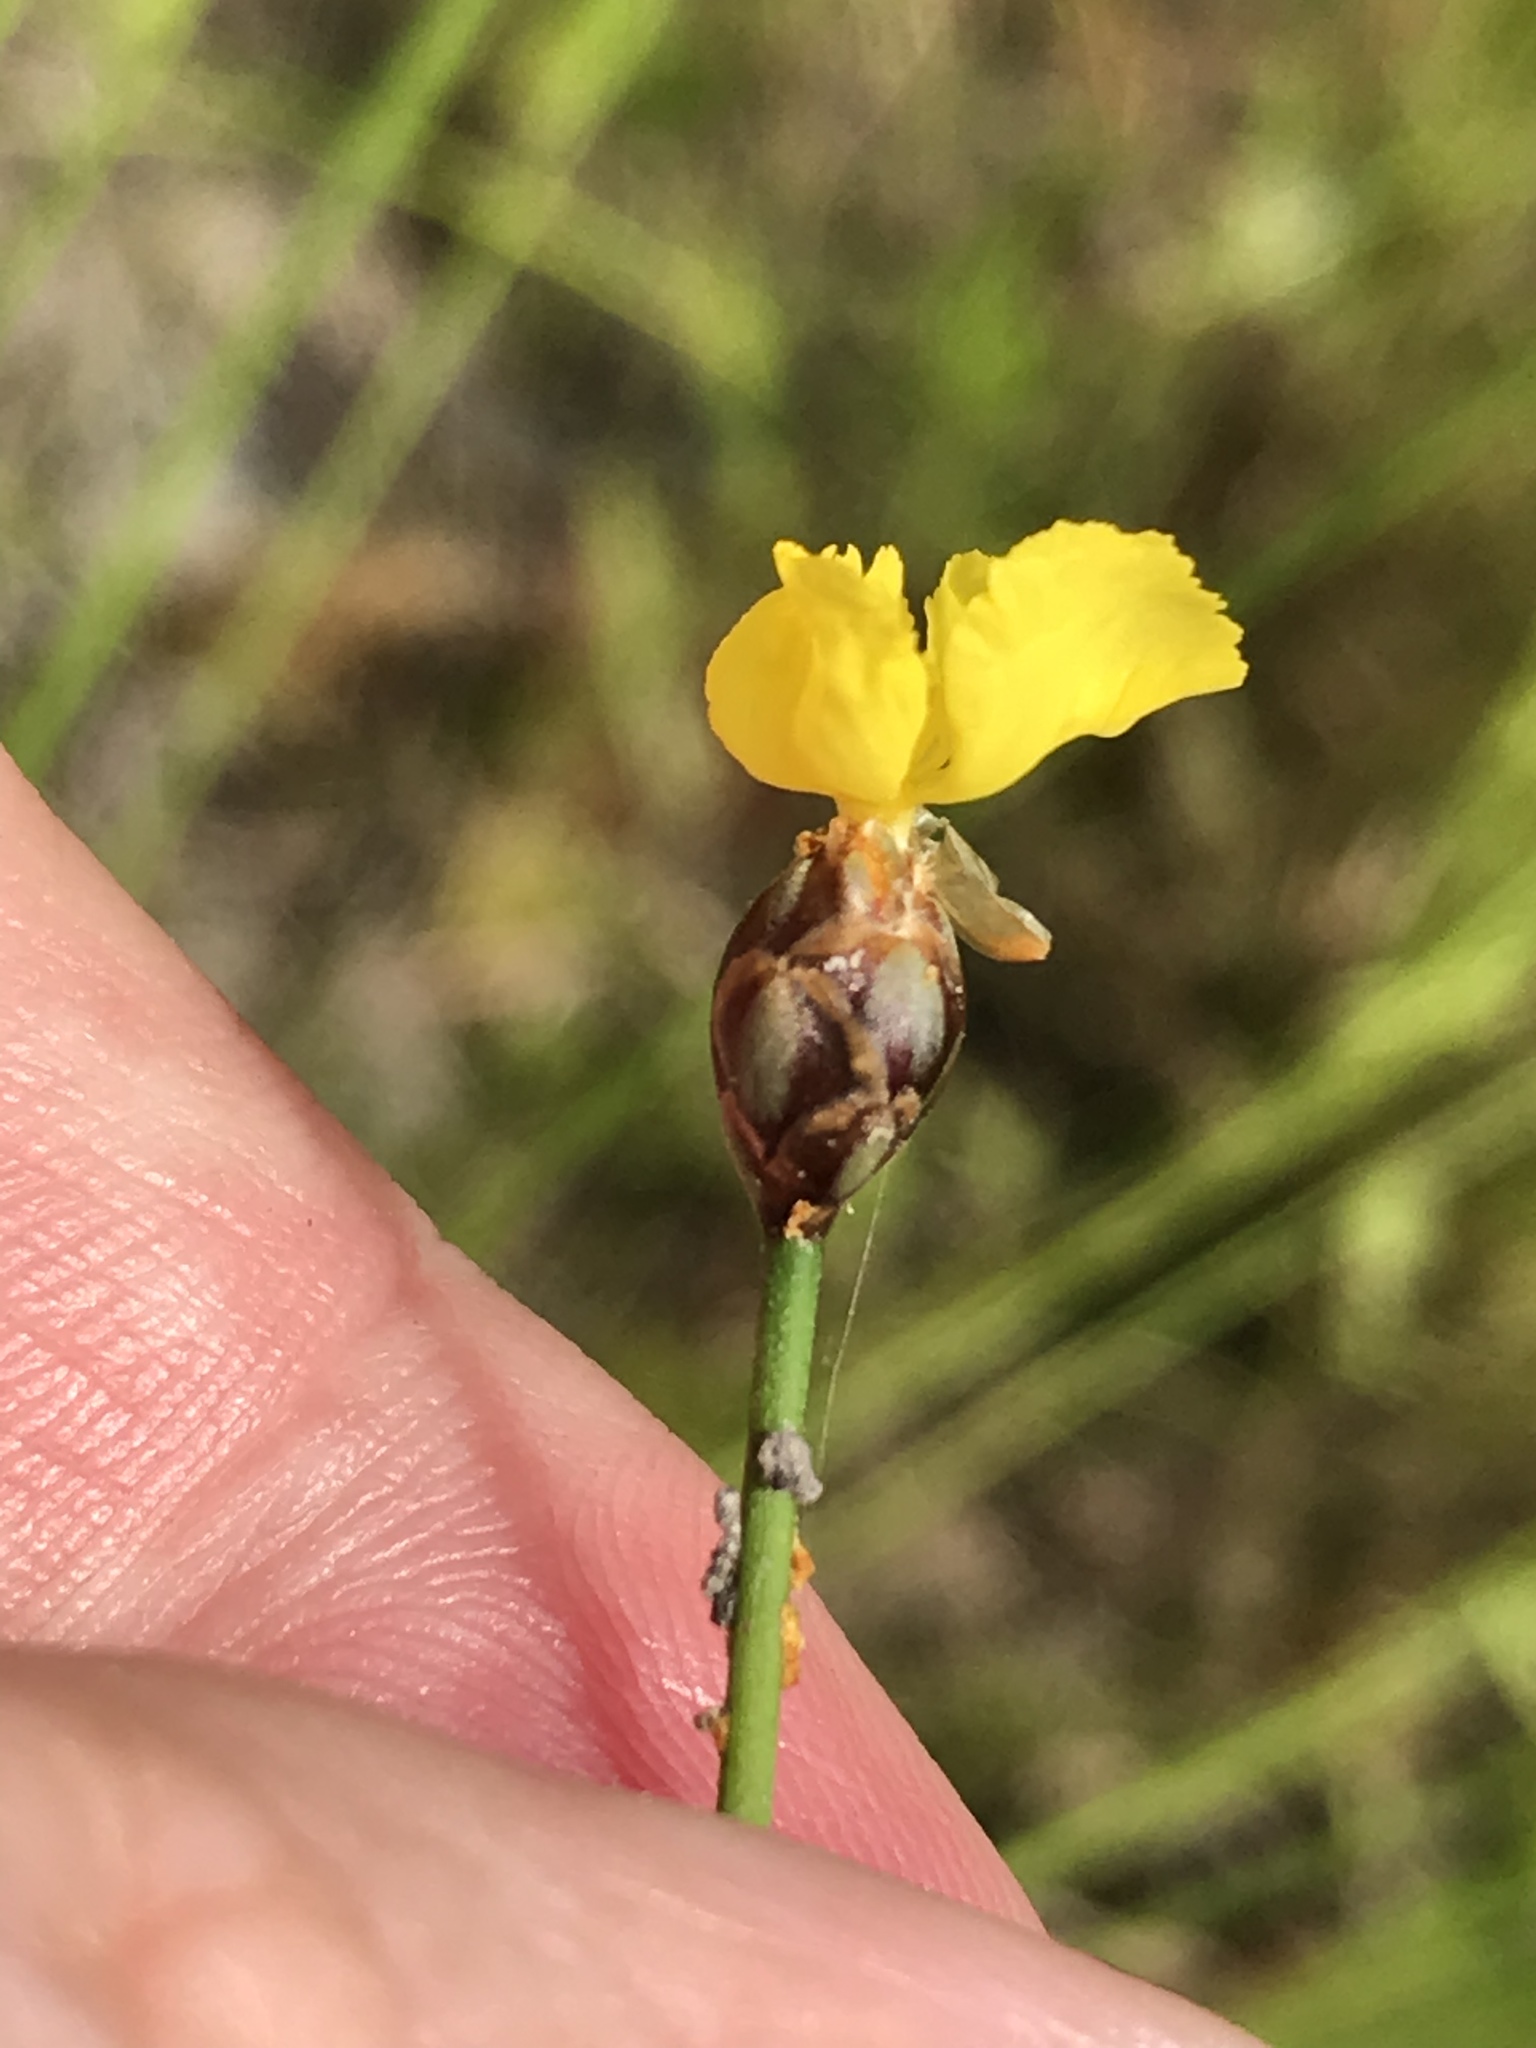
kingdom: Plantae
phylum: Tracheophyta
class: Liliopsida
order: Poales
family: Xyridaceae
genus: Xyris
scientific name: Xyris baldwiniana
